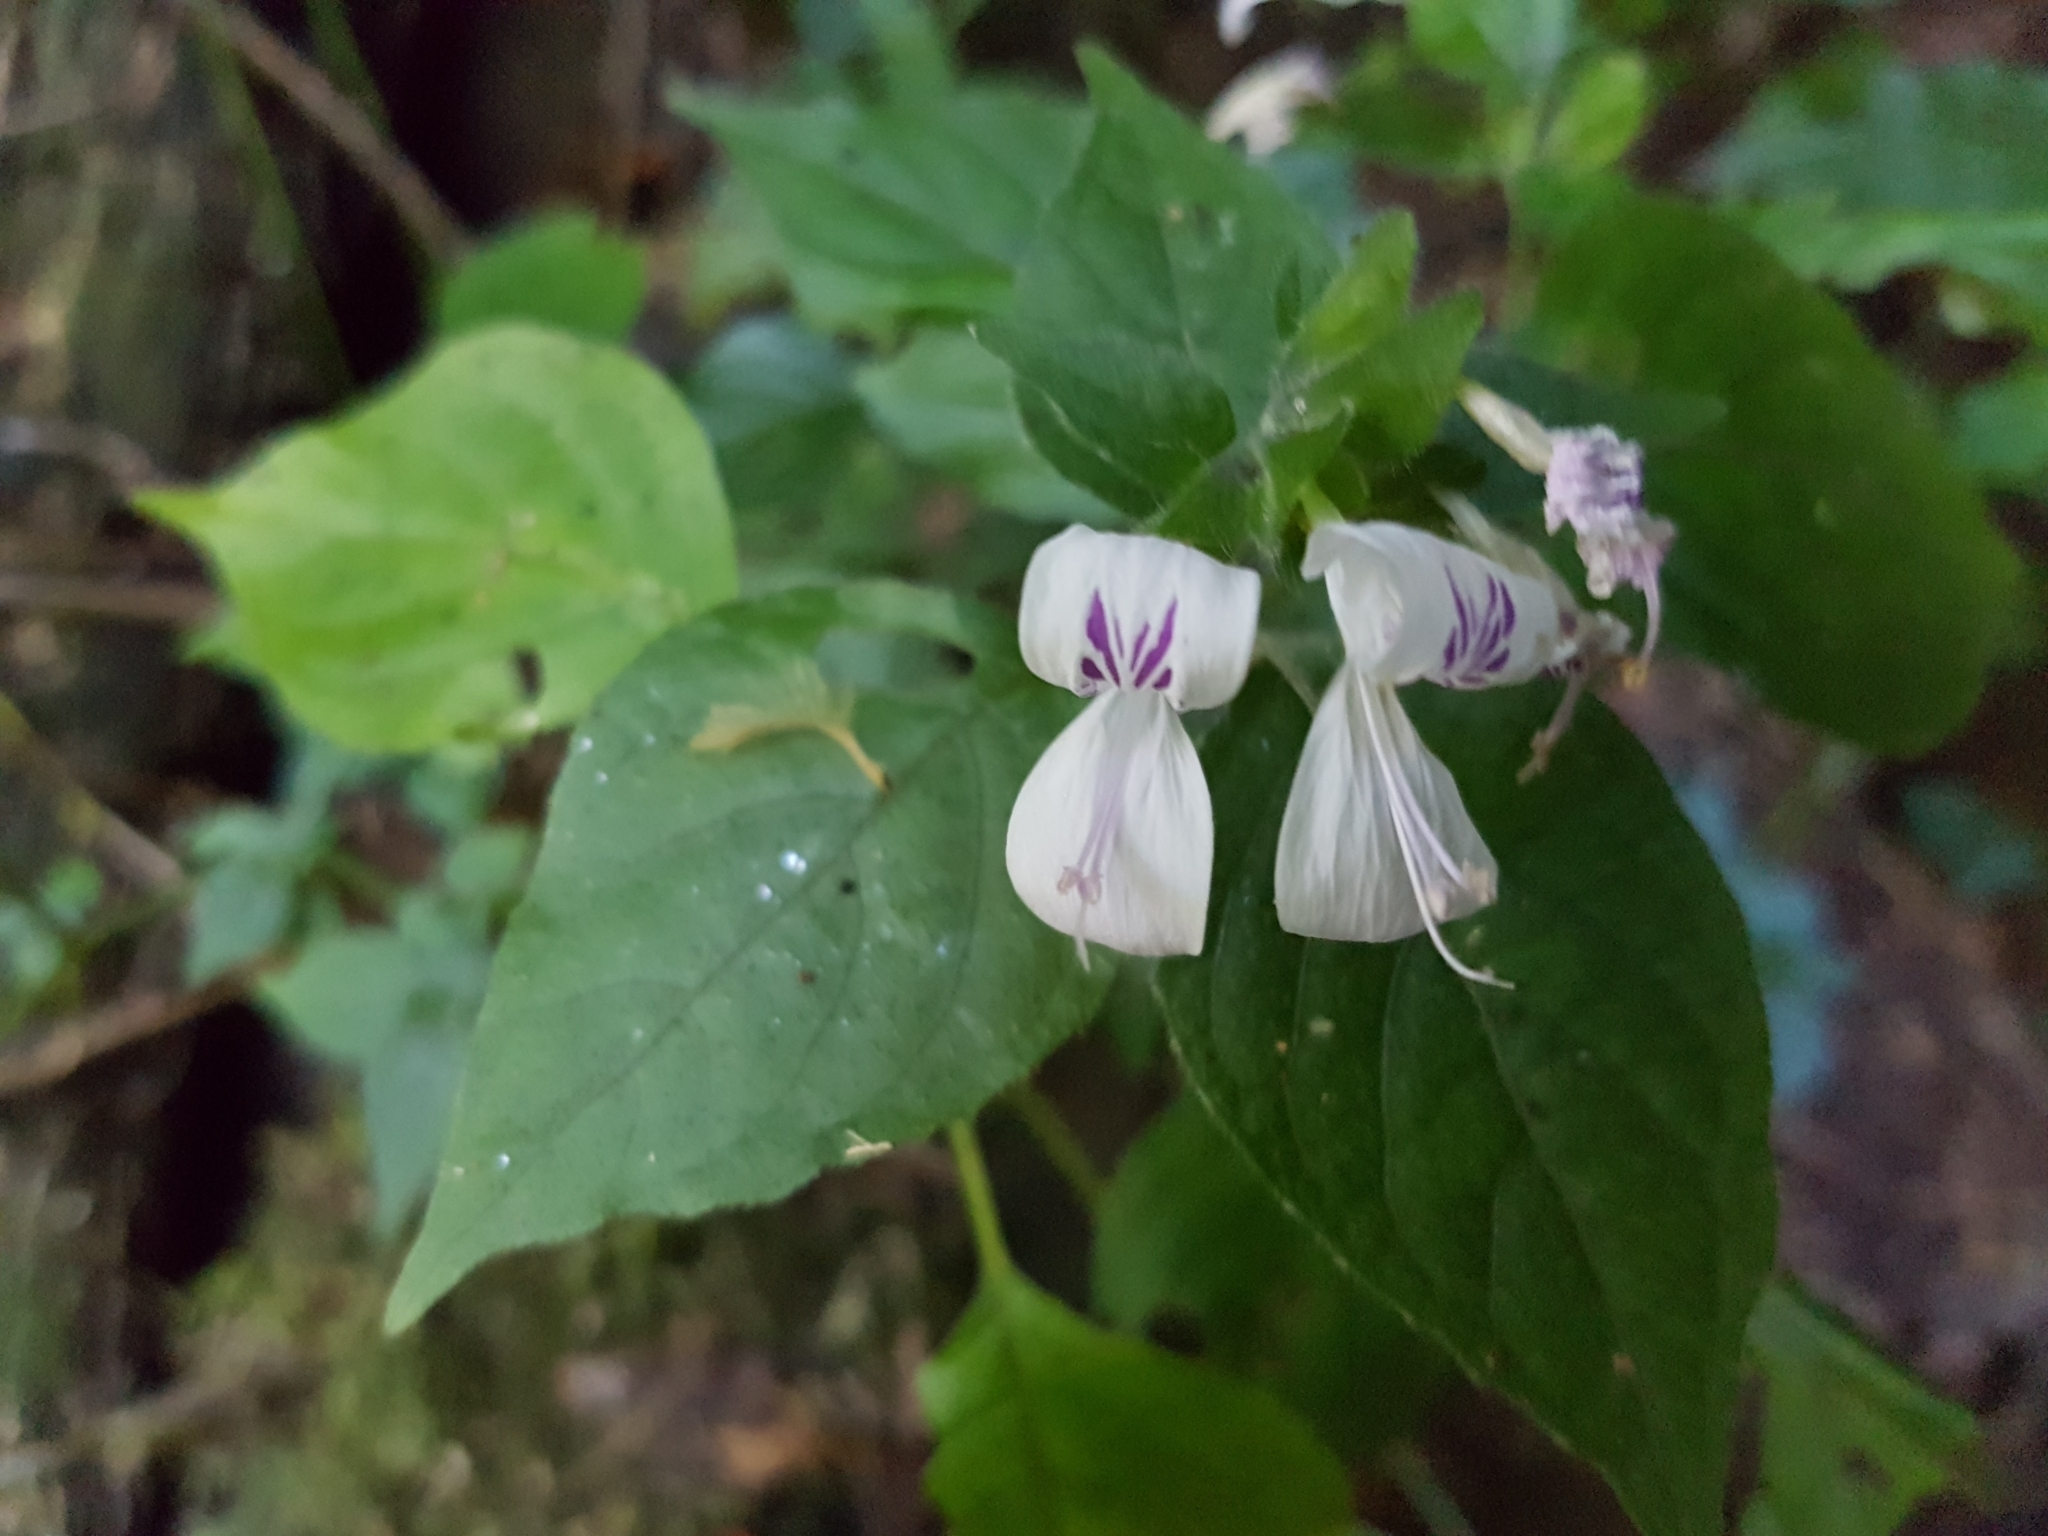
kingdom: Plantae
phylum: Tracheophyta
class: Magnoliopsida
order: Lamiales
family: Acanthaceae
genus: Hypoestes
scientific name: Hypoestes triflora
